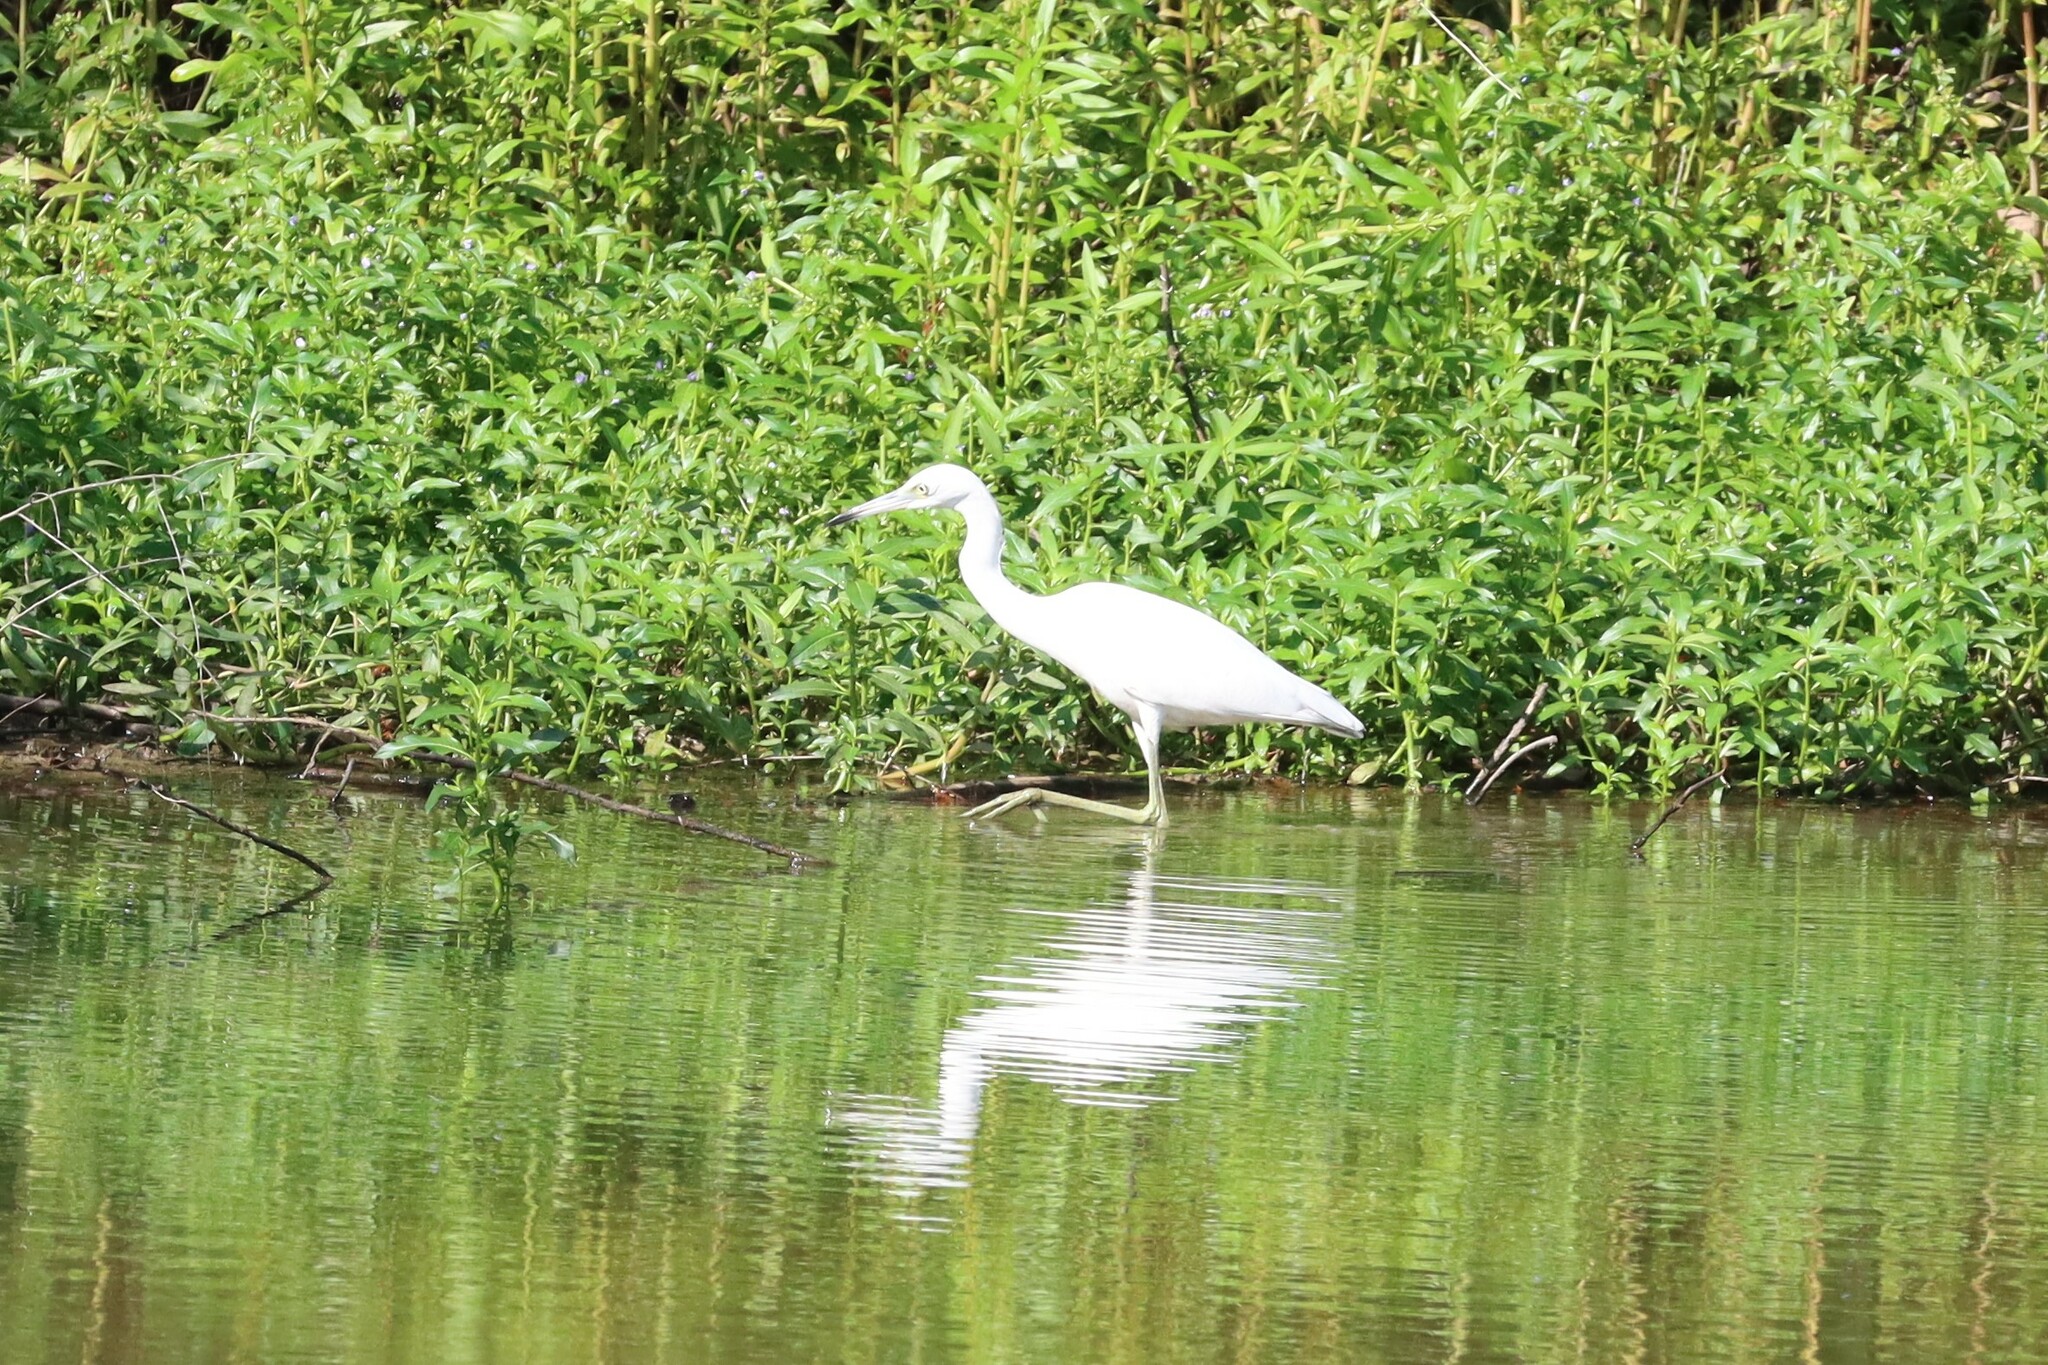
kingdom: Animalia
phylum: Chordata
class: Aves
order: Pelecaniformes
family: Ardeidae
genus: Egretta
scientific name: Egretta caerulea
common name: Little blue heron
